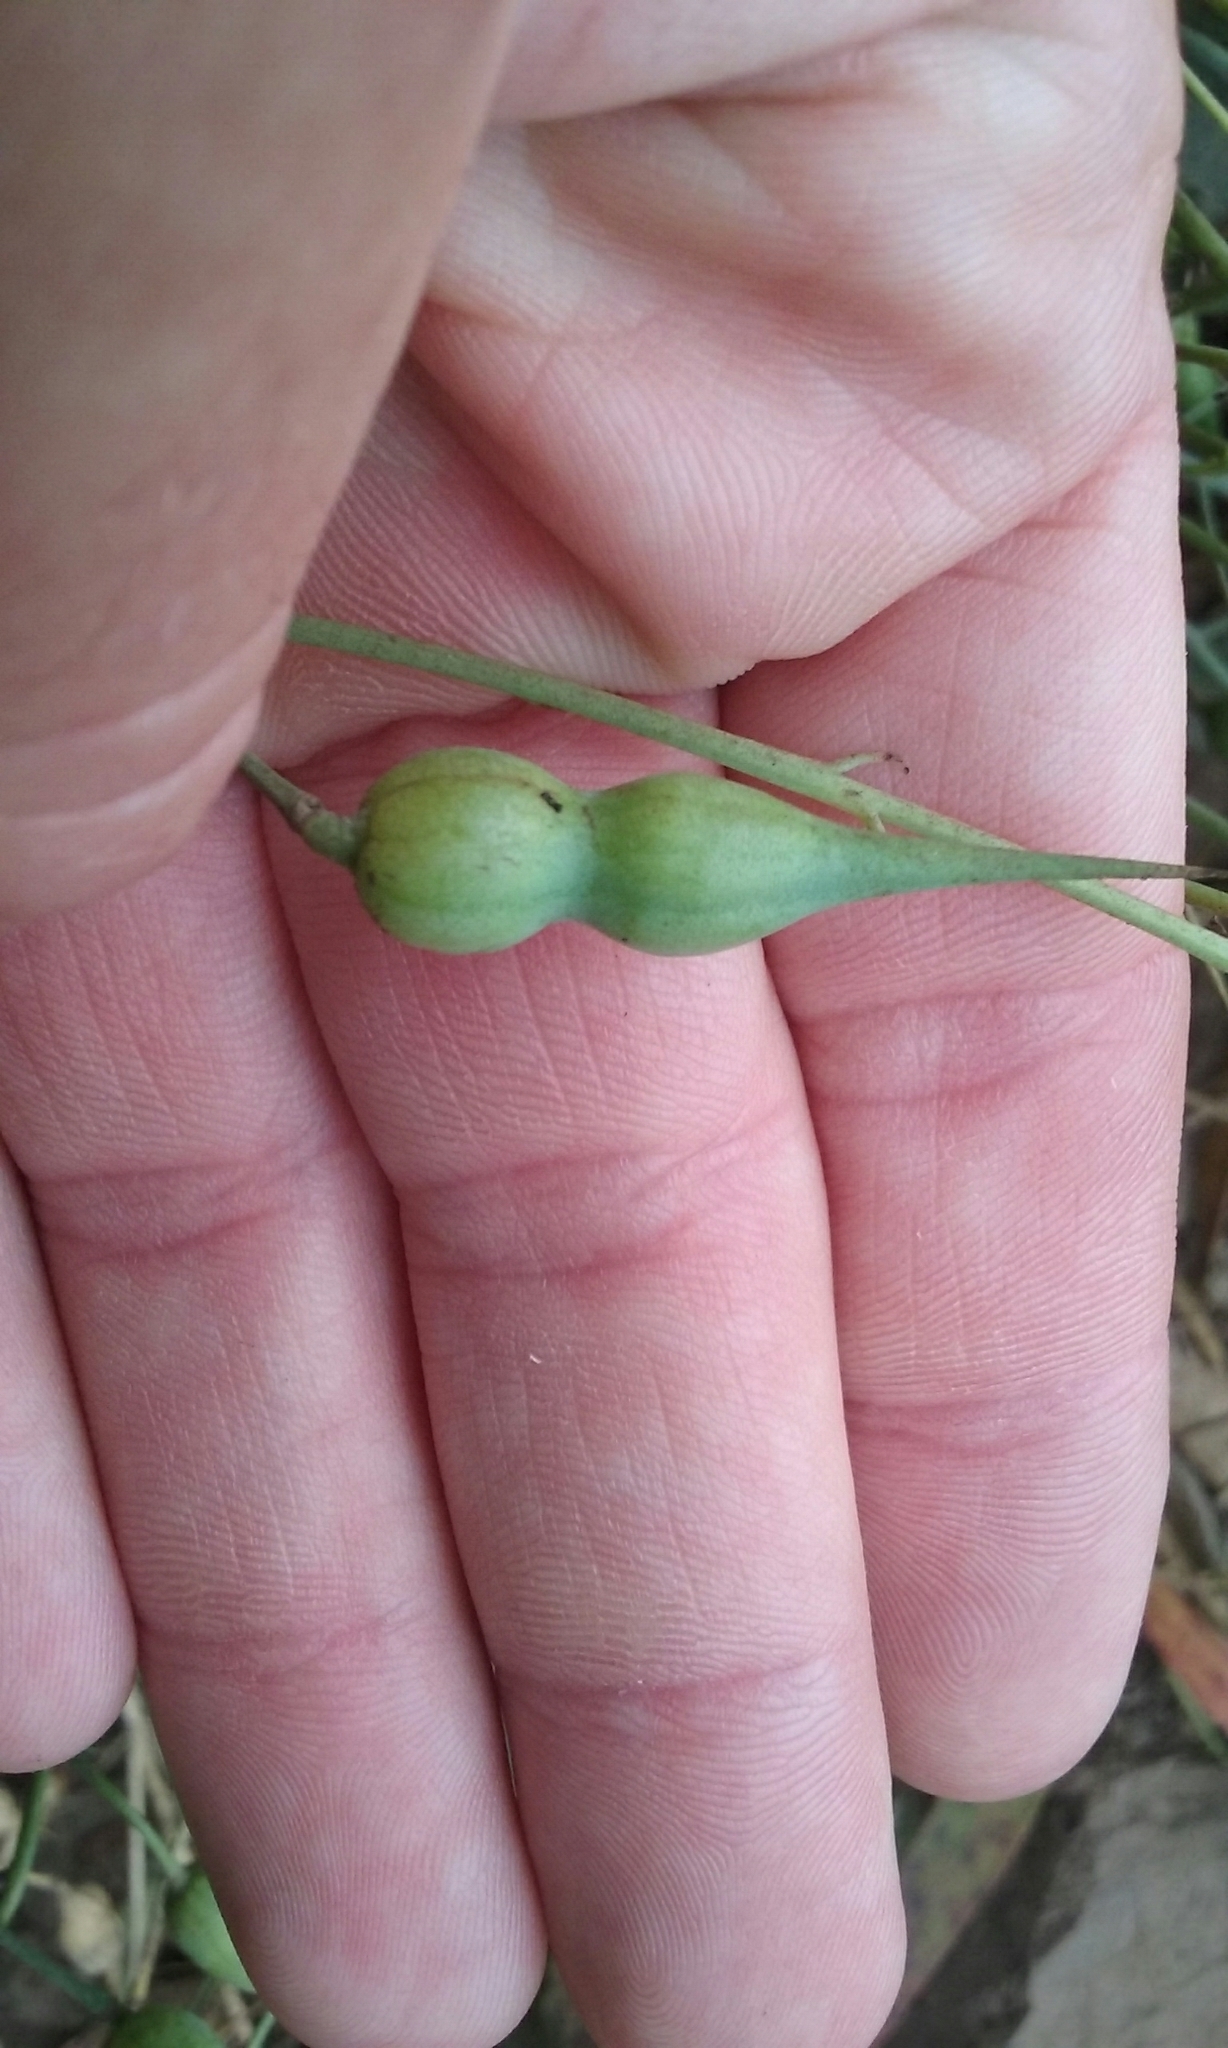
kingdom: Plantae
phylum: Tracheophyta
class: Magnoliopsida
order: Brassicales
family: Brassicaceae
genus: Raphanus
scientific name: Raphanus raphanistrum
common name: Wild radish
